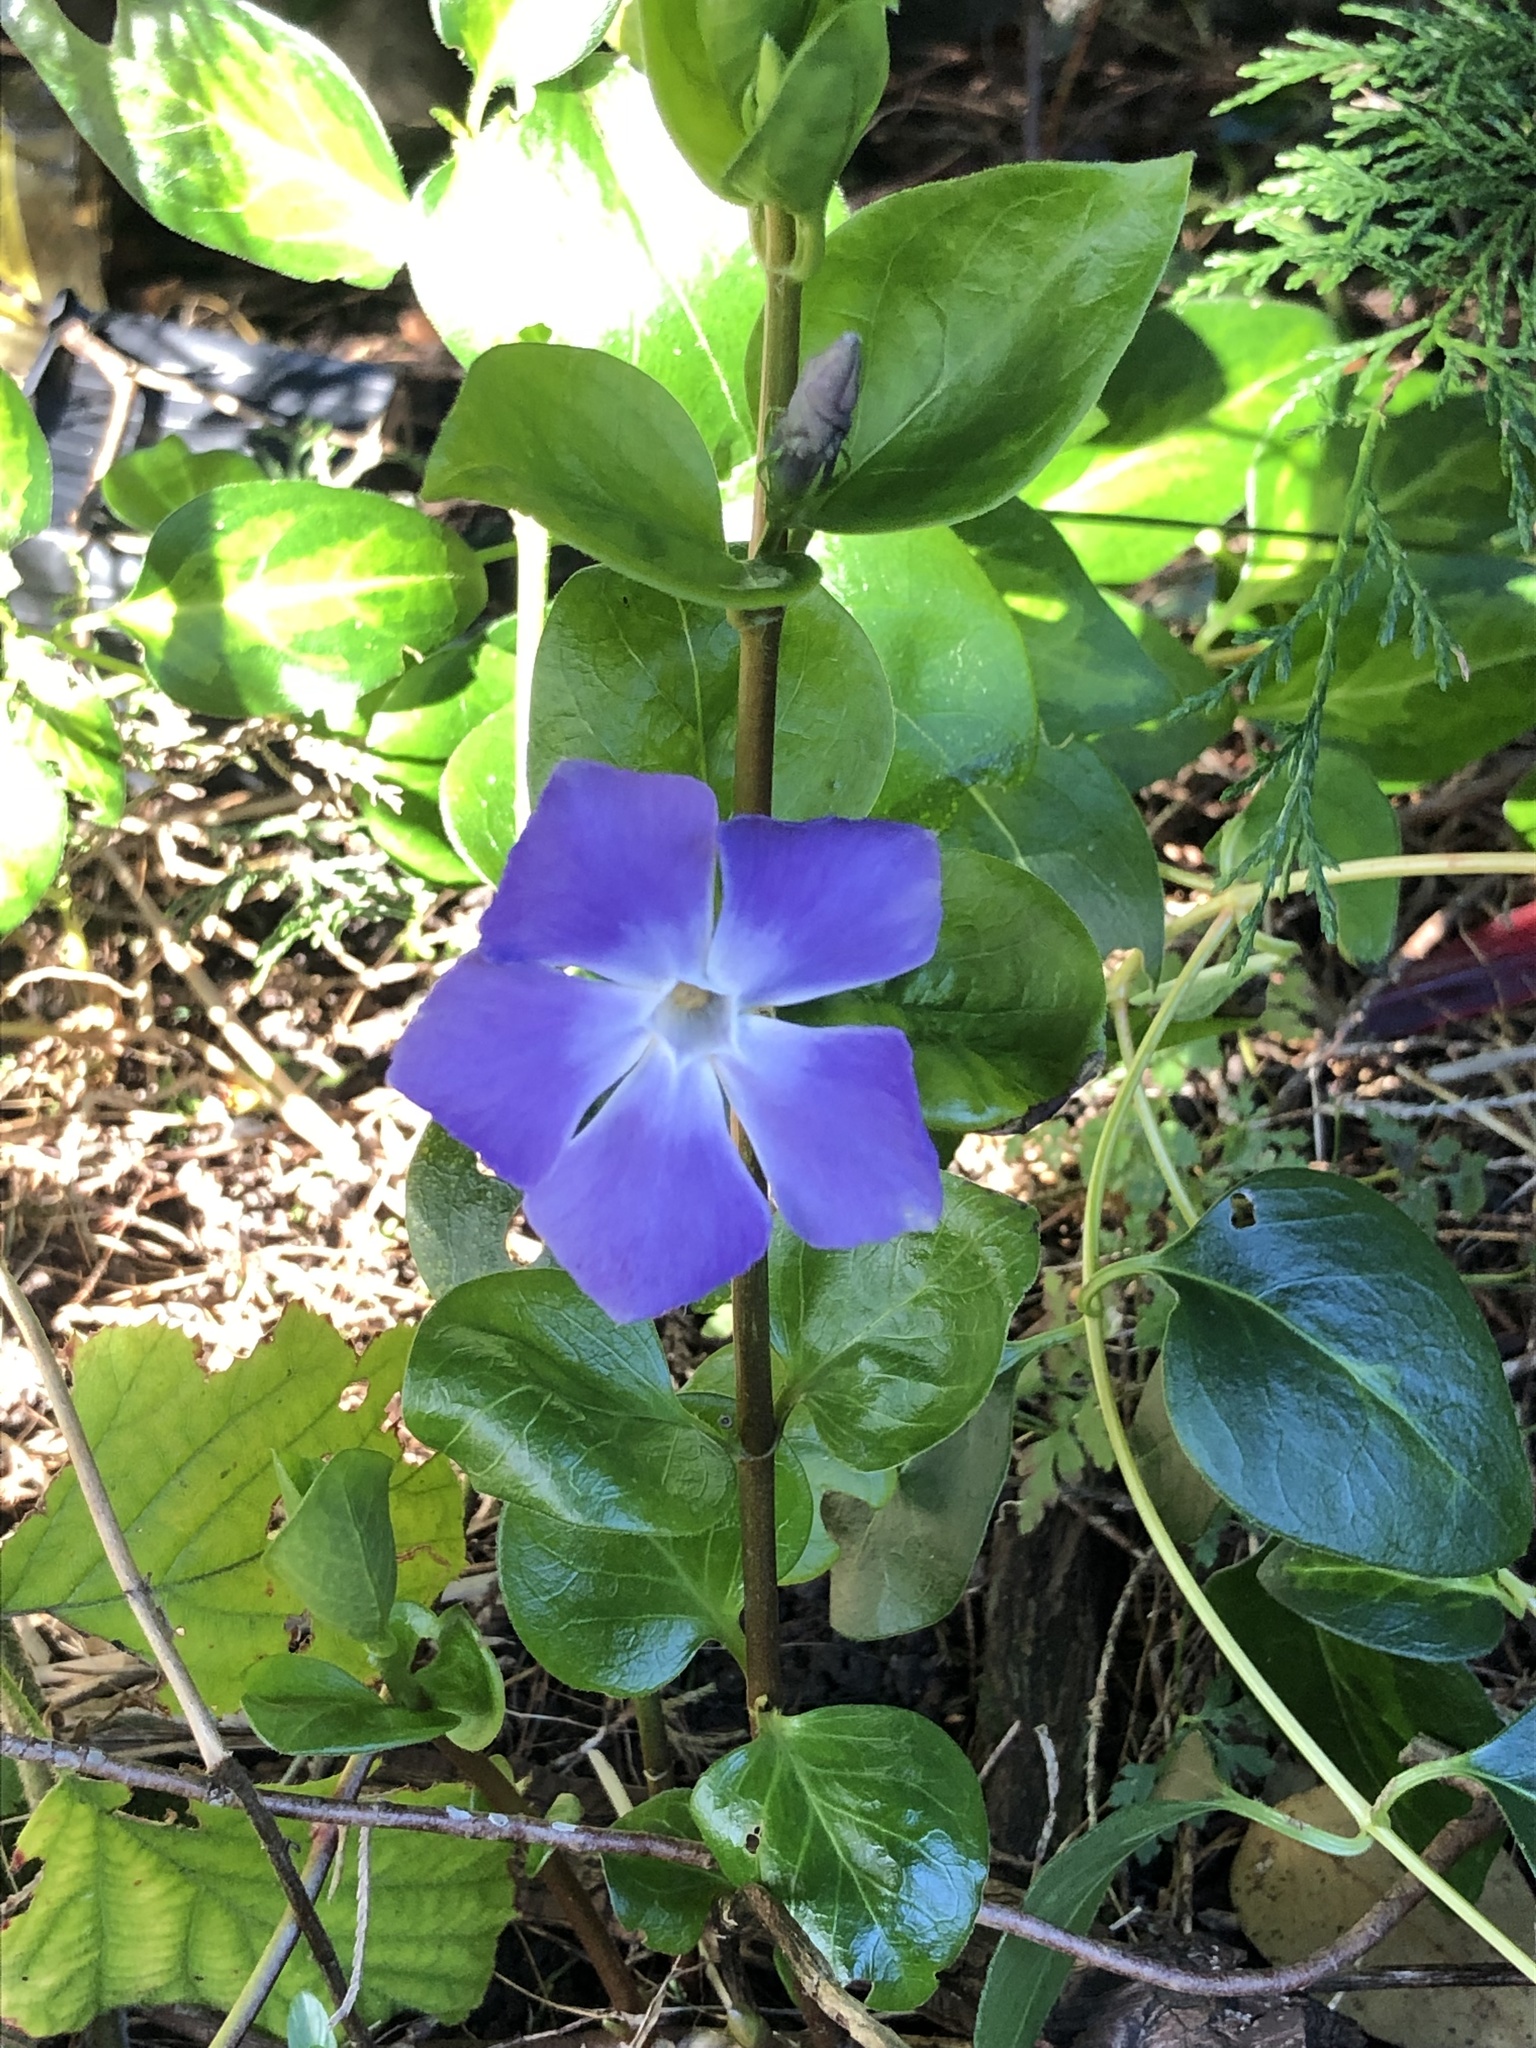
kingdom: Plantae
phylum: Tracheophyta
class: Magnoliopsida
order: Gentianales
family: Apocynaceae
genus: Vinca
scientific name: Vinca major
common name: Greater periwinkle
